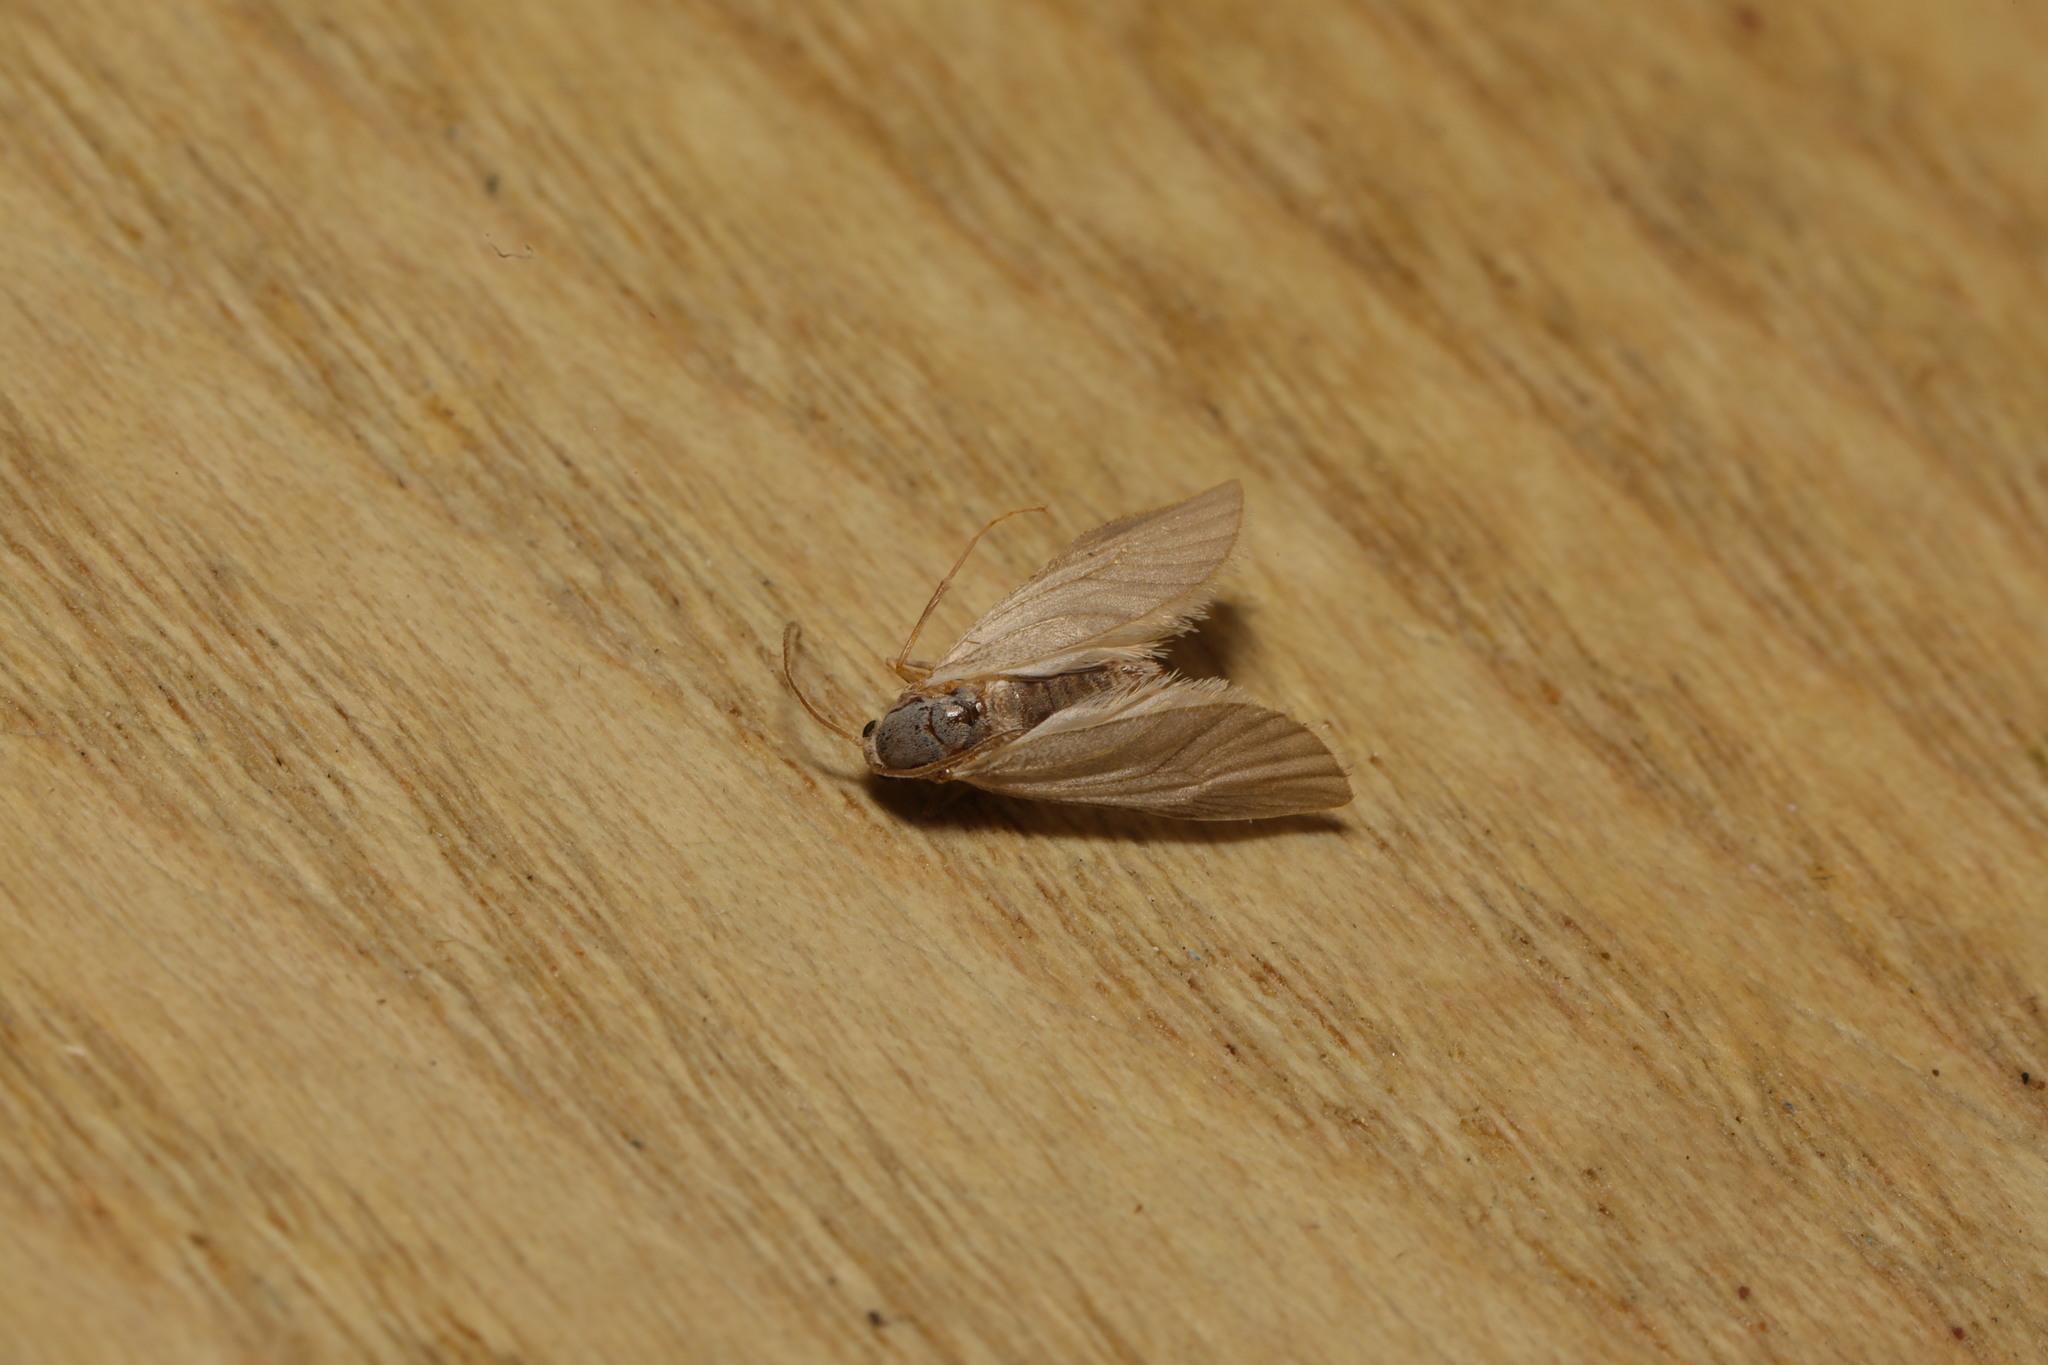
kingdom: Animalia
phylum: Arthropoda
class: Insecta
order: Lepidoptera
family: Crambidae
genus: Acentria
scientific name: Acentria ephemerella
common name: European water moth
